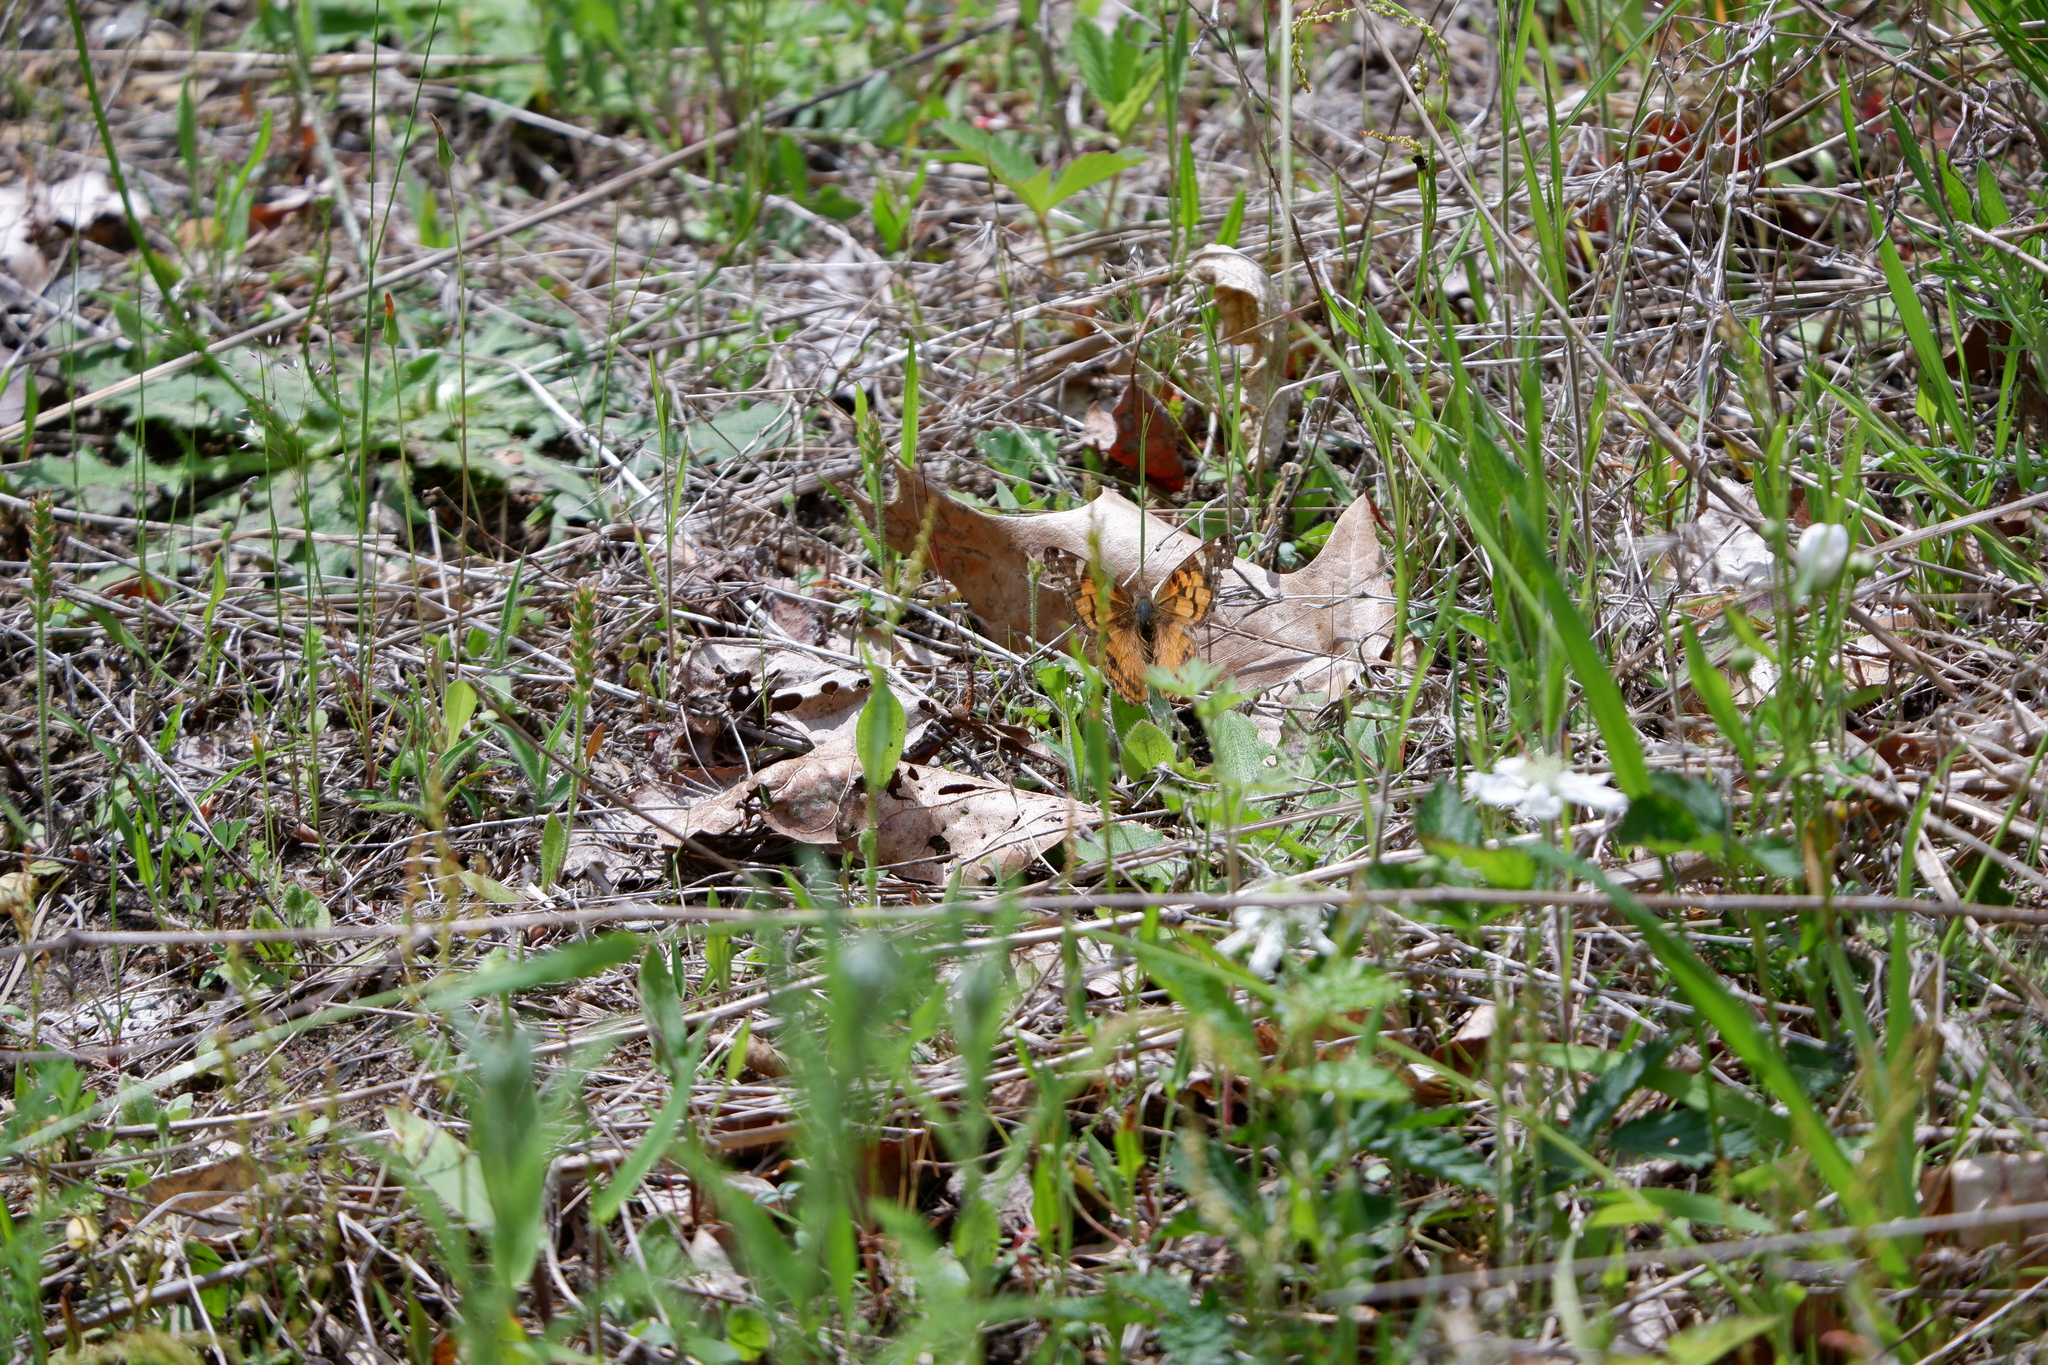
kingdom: Animalia
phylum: Arthropoda
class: Insecta
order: Lepidoptera
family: Nymphalidae
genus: Vanessa
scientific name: Vanessa virginiensis
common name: American lady
